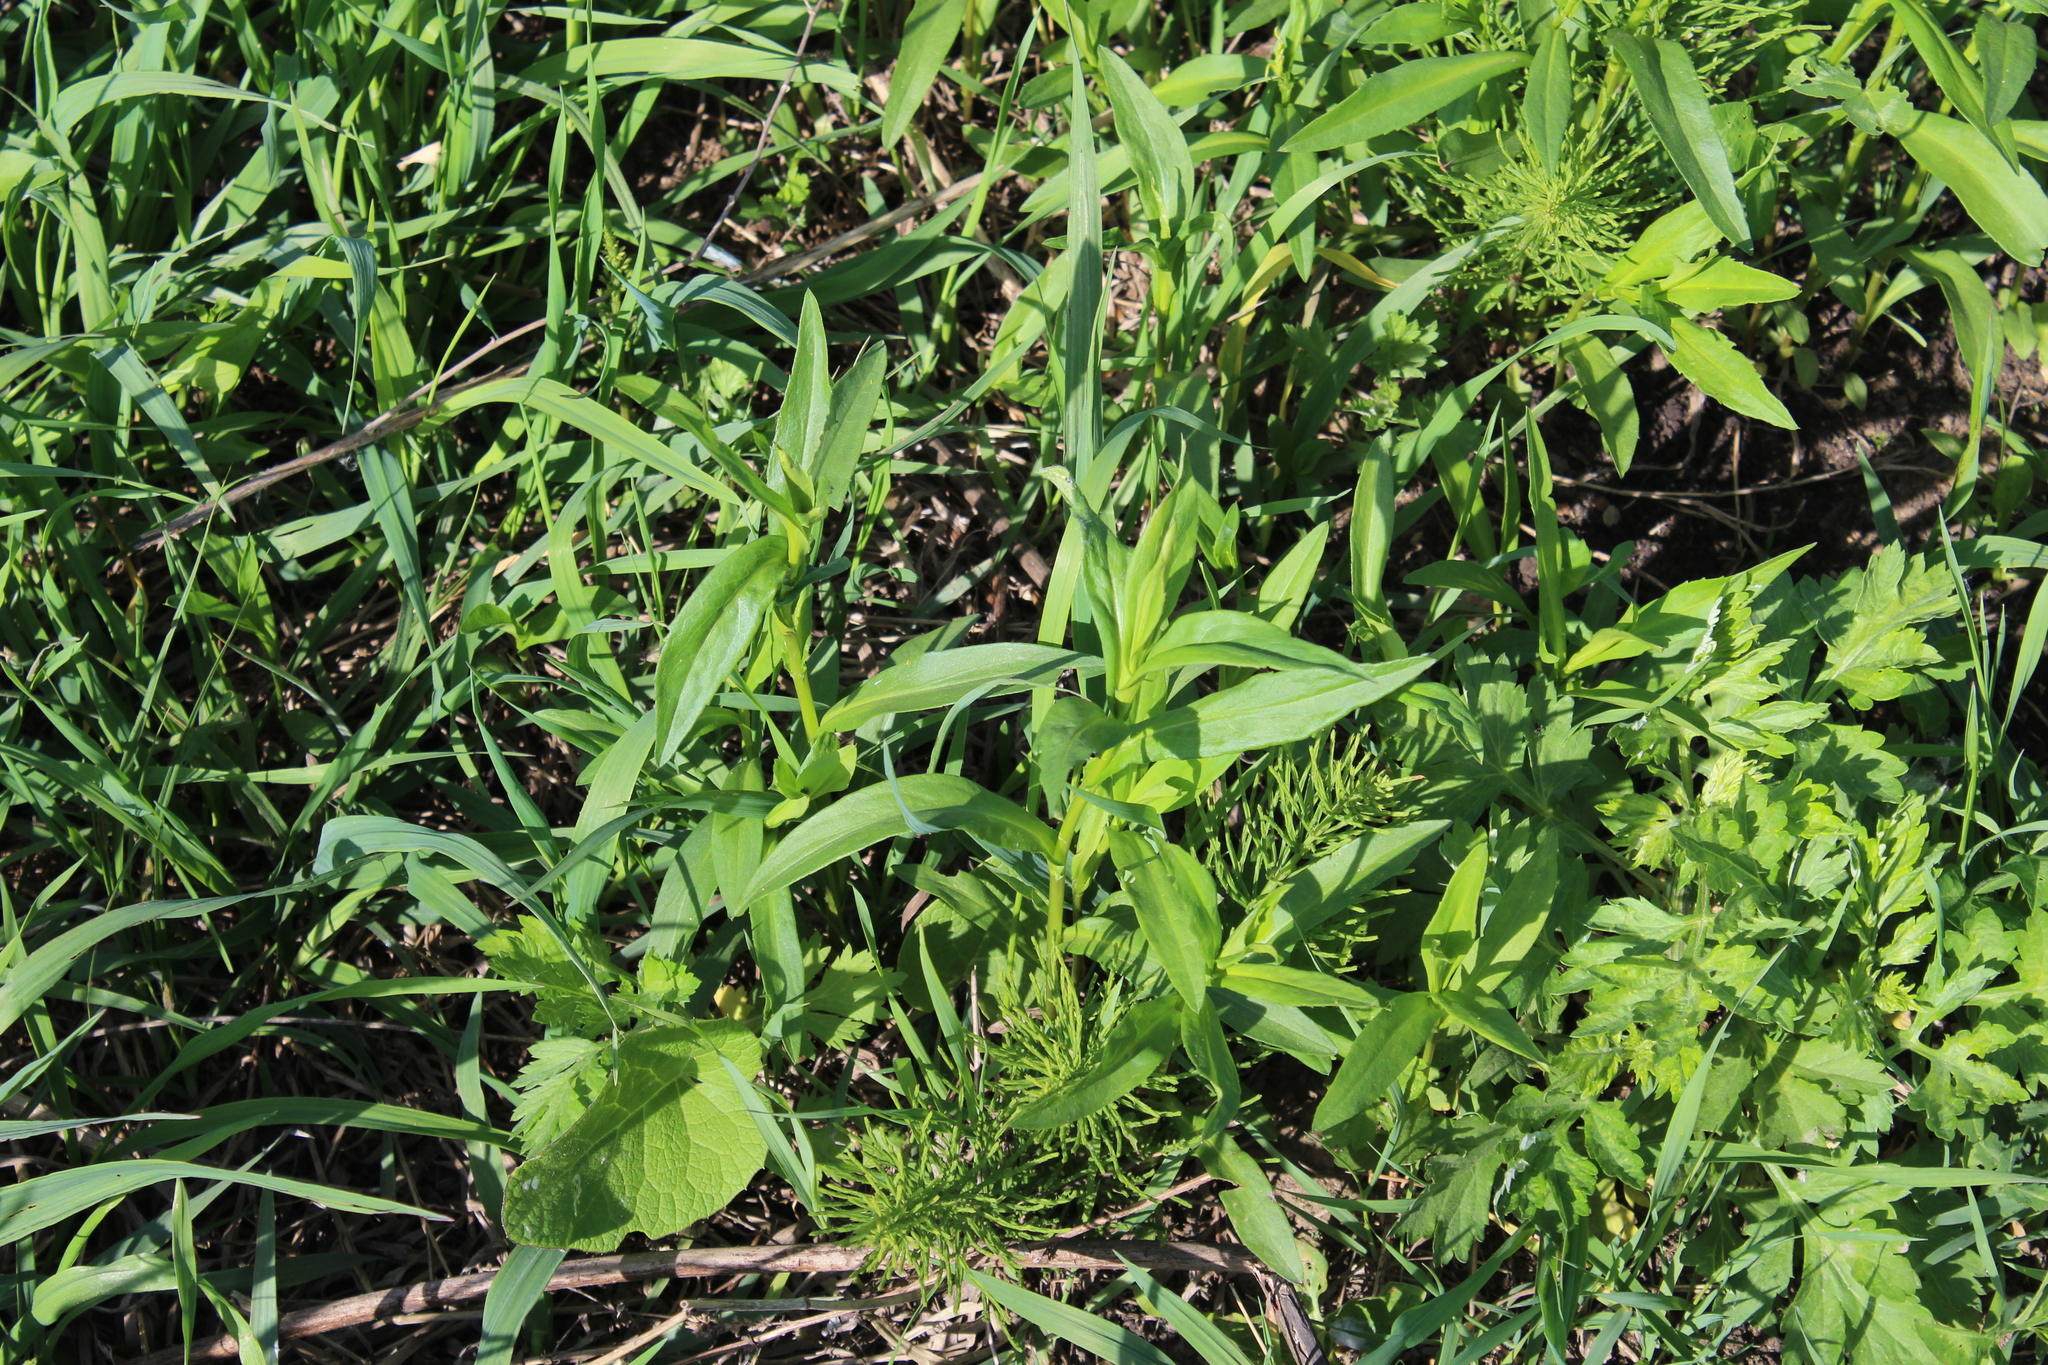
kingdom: Plantae
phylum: Tracheophyta
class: Magnoliopsida
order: Asterales
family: Asteraceae
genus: Symphyotrichum
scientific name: Symphyotrichum
